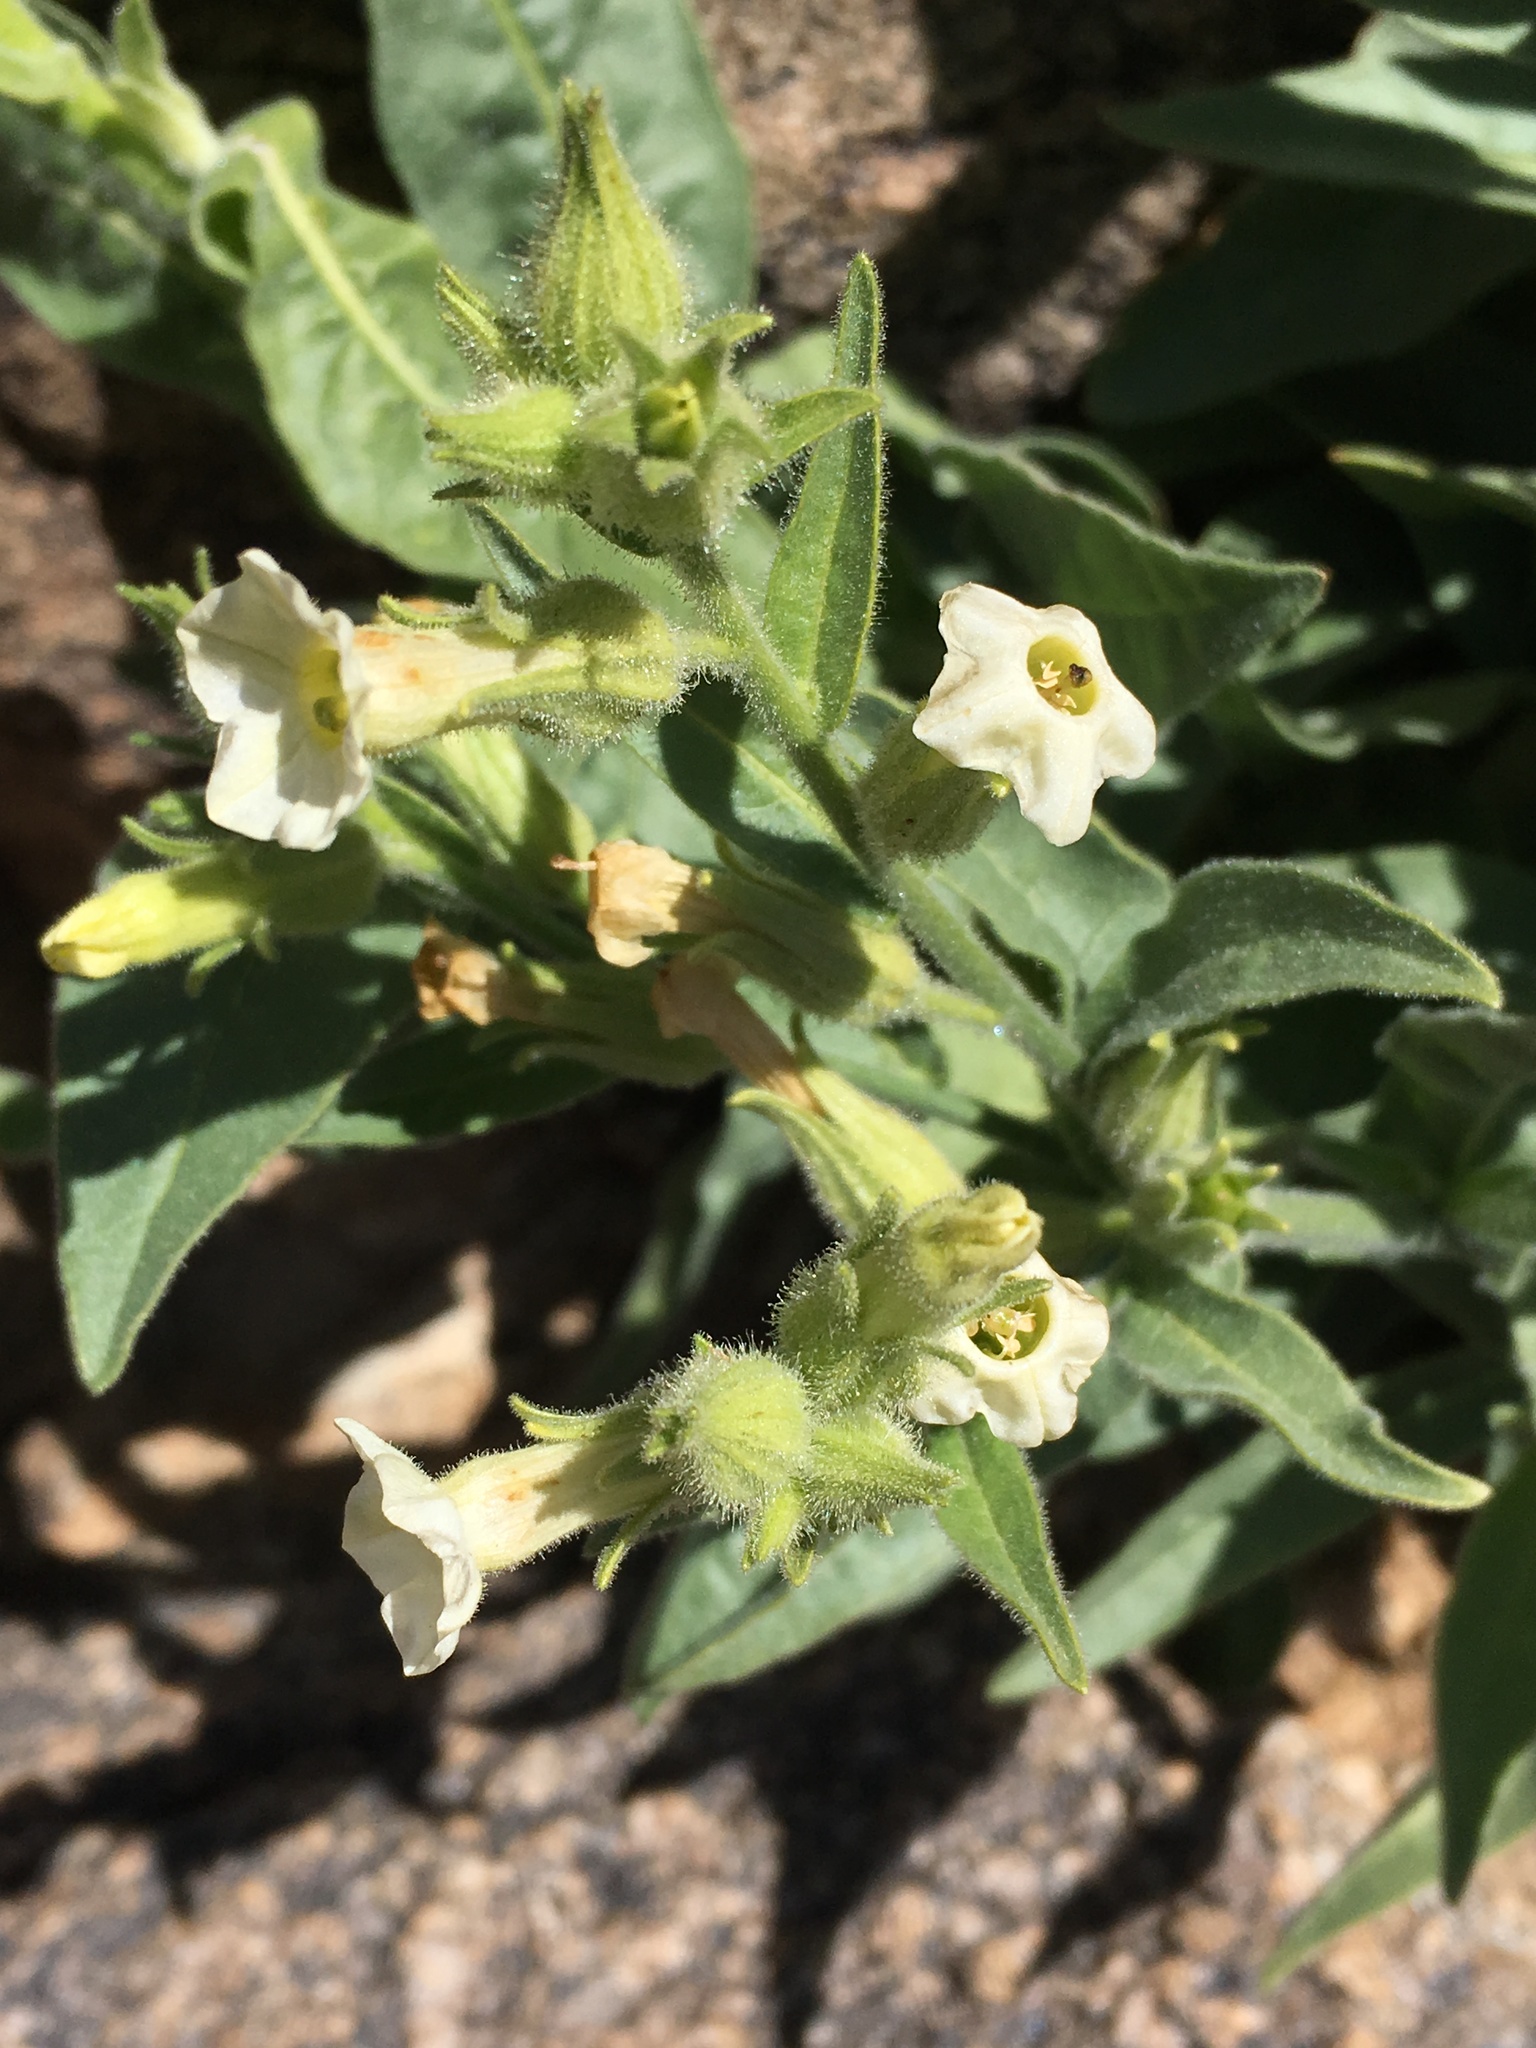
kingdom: Plantae
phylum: Tracheophyta
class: Magnoliopsida
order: Solanales
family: Solanaceae
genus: Nicotiana
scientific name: Nicotiana obtusifolia
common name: Desert tobacco
